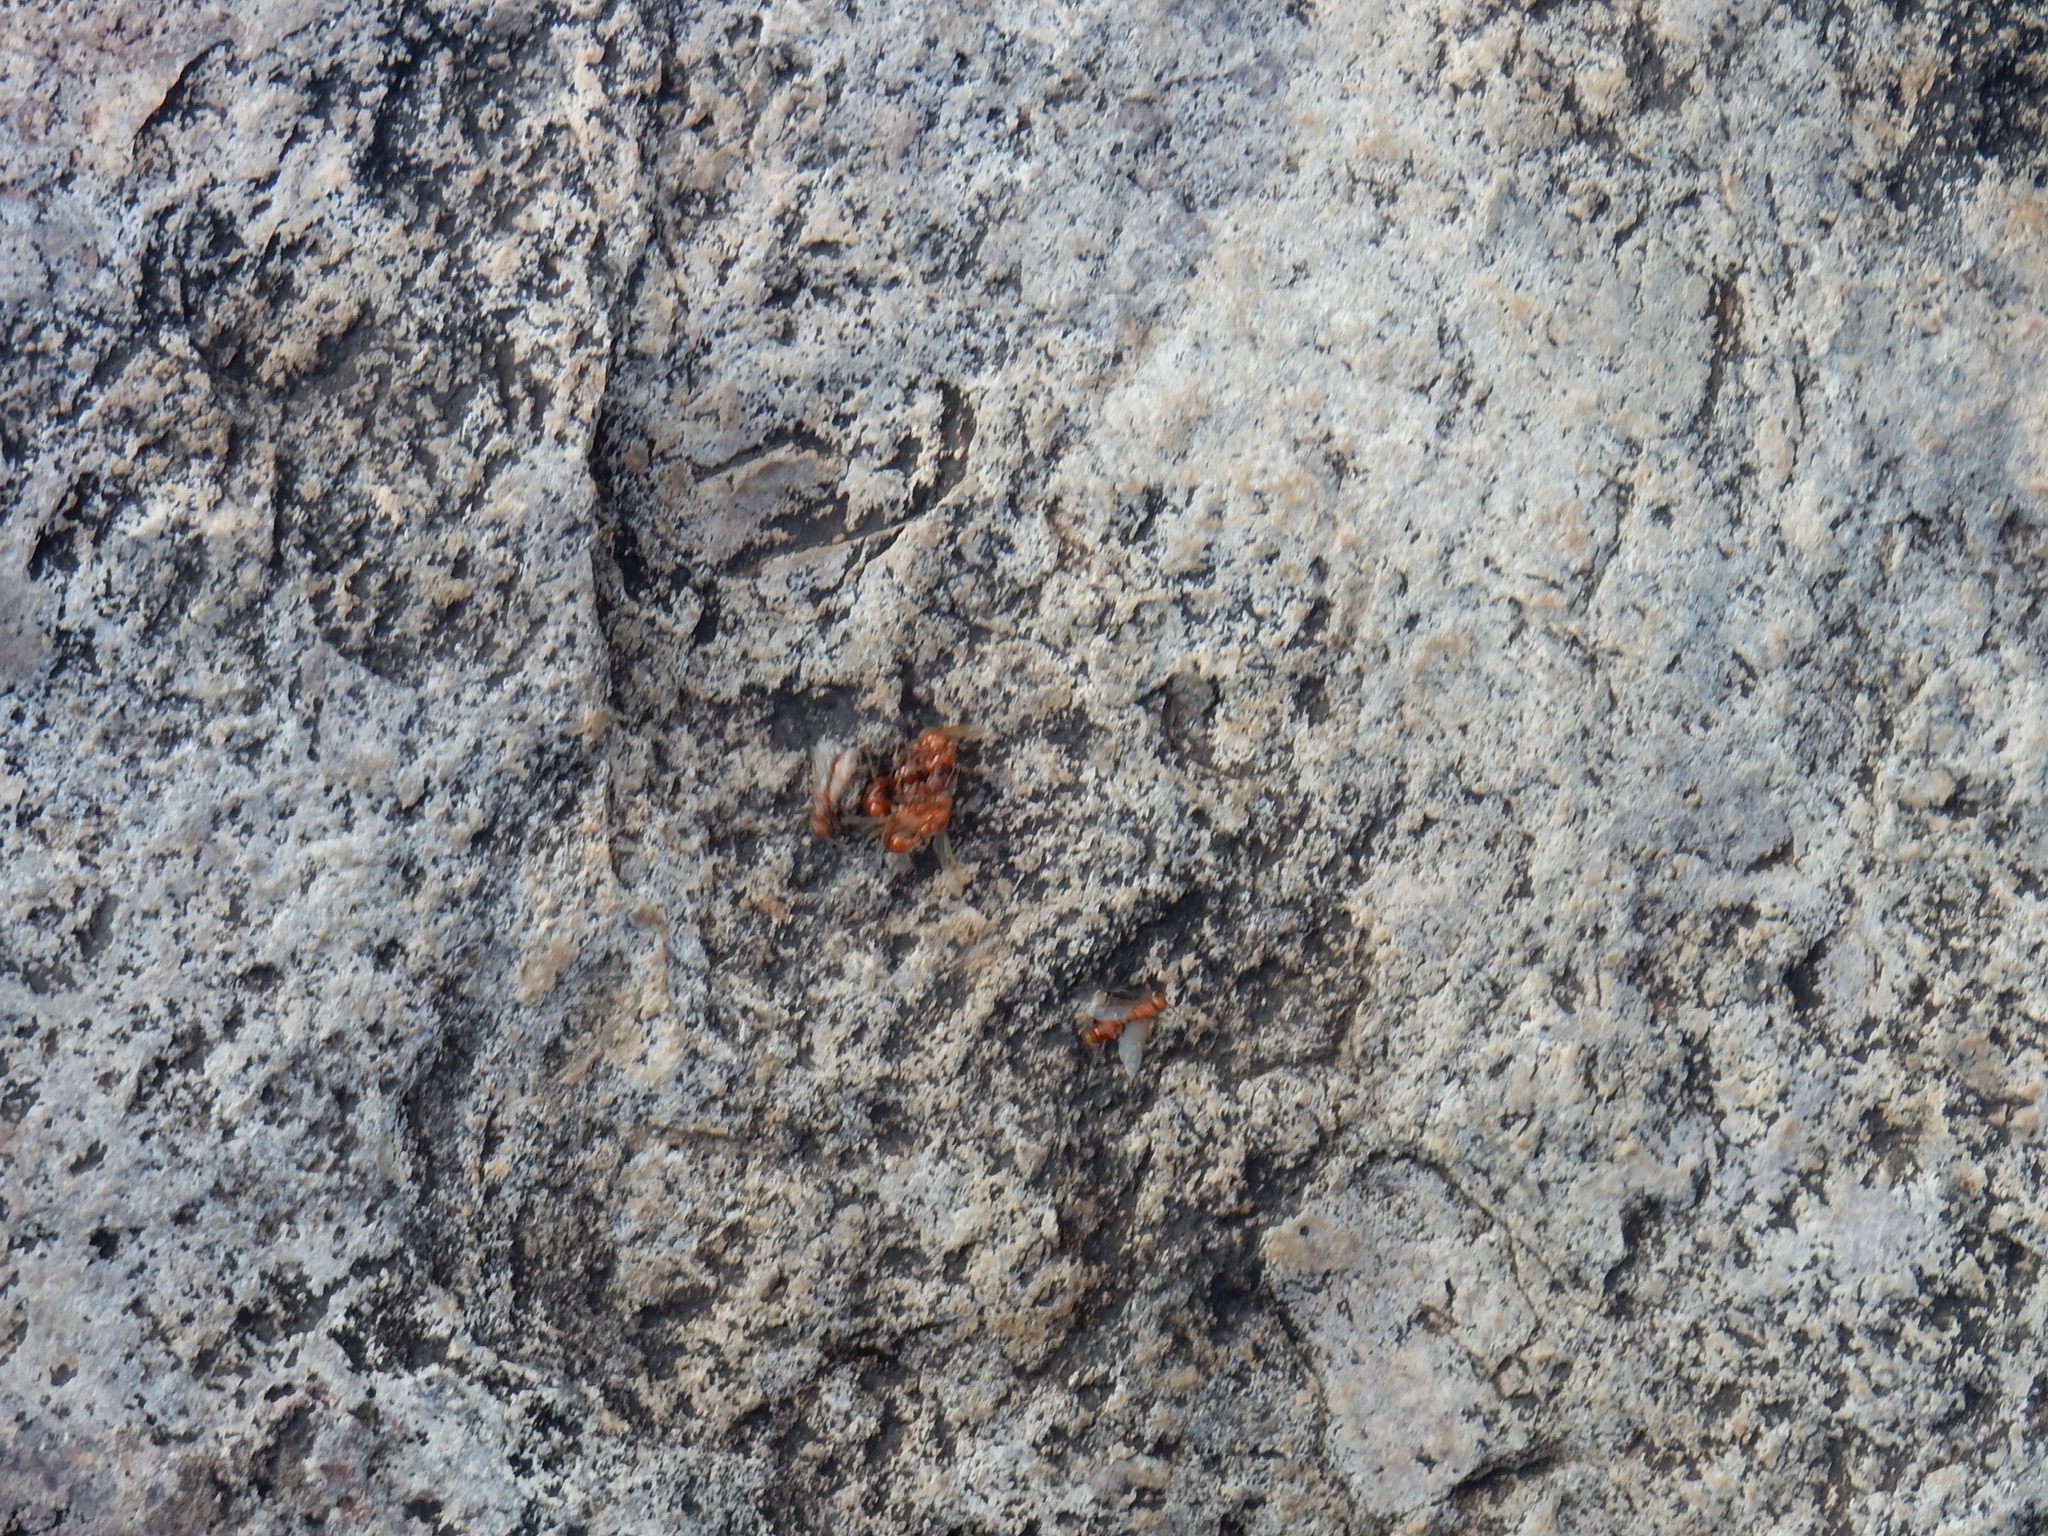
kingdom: Animalia
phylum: Arthropoda
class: Insecta
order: Hymenoptera
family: Formicidae
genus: Pogonomyrmex
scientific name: Pogonomyrmex barbatus
